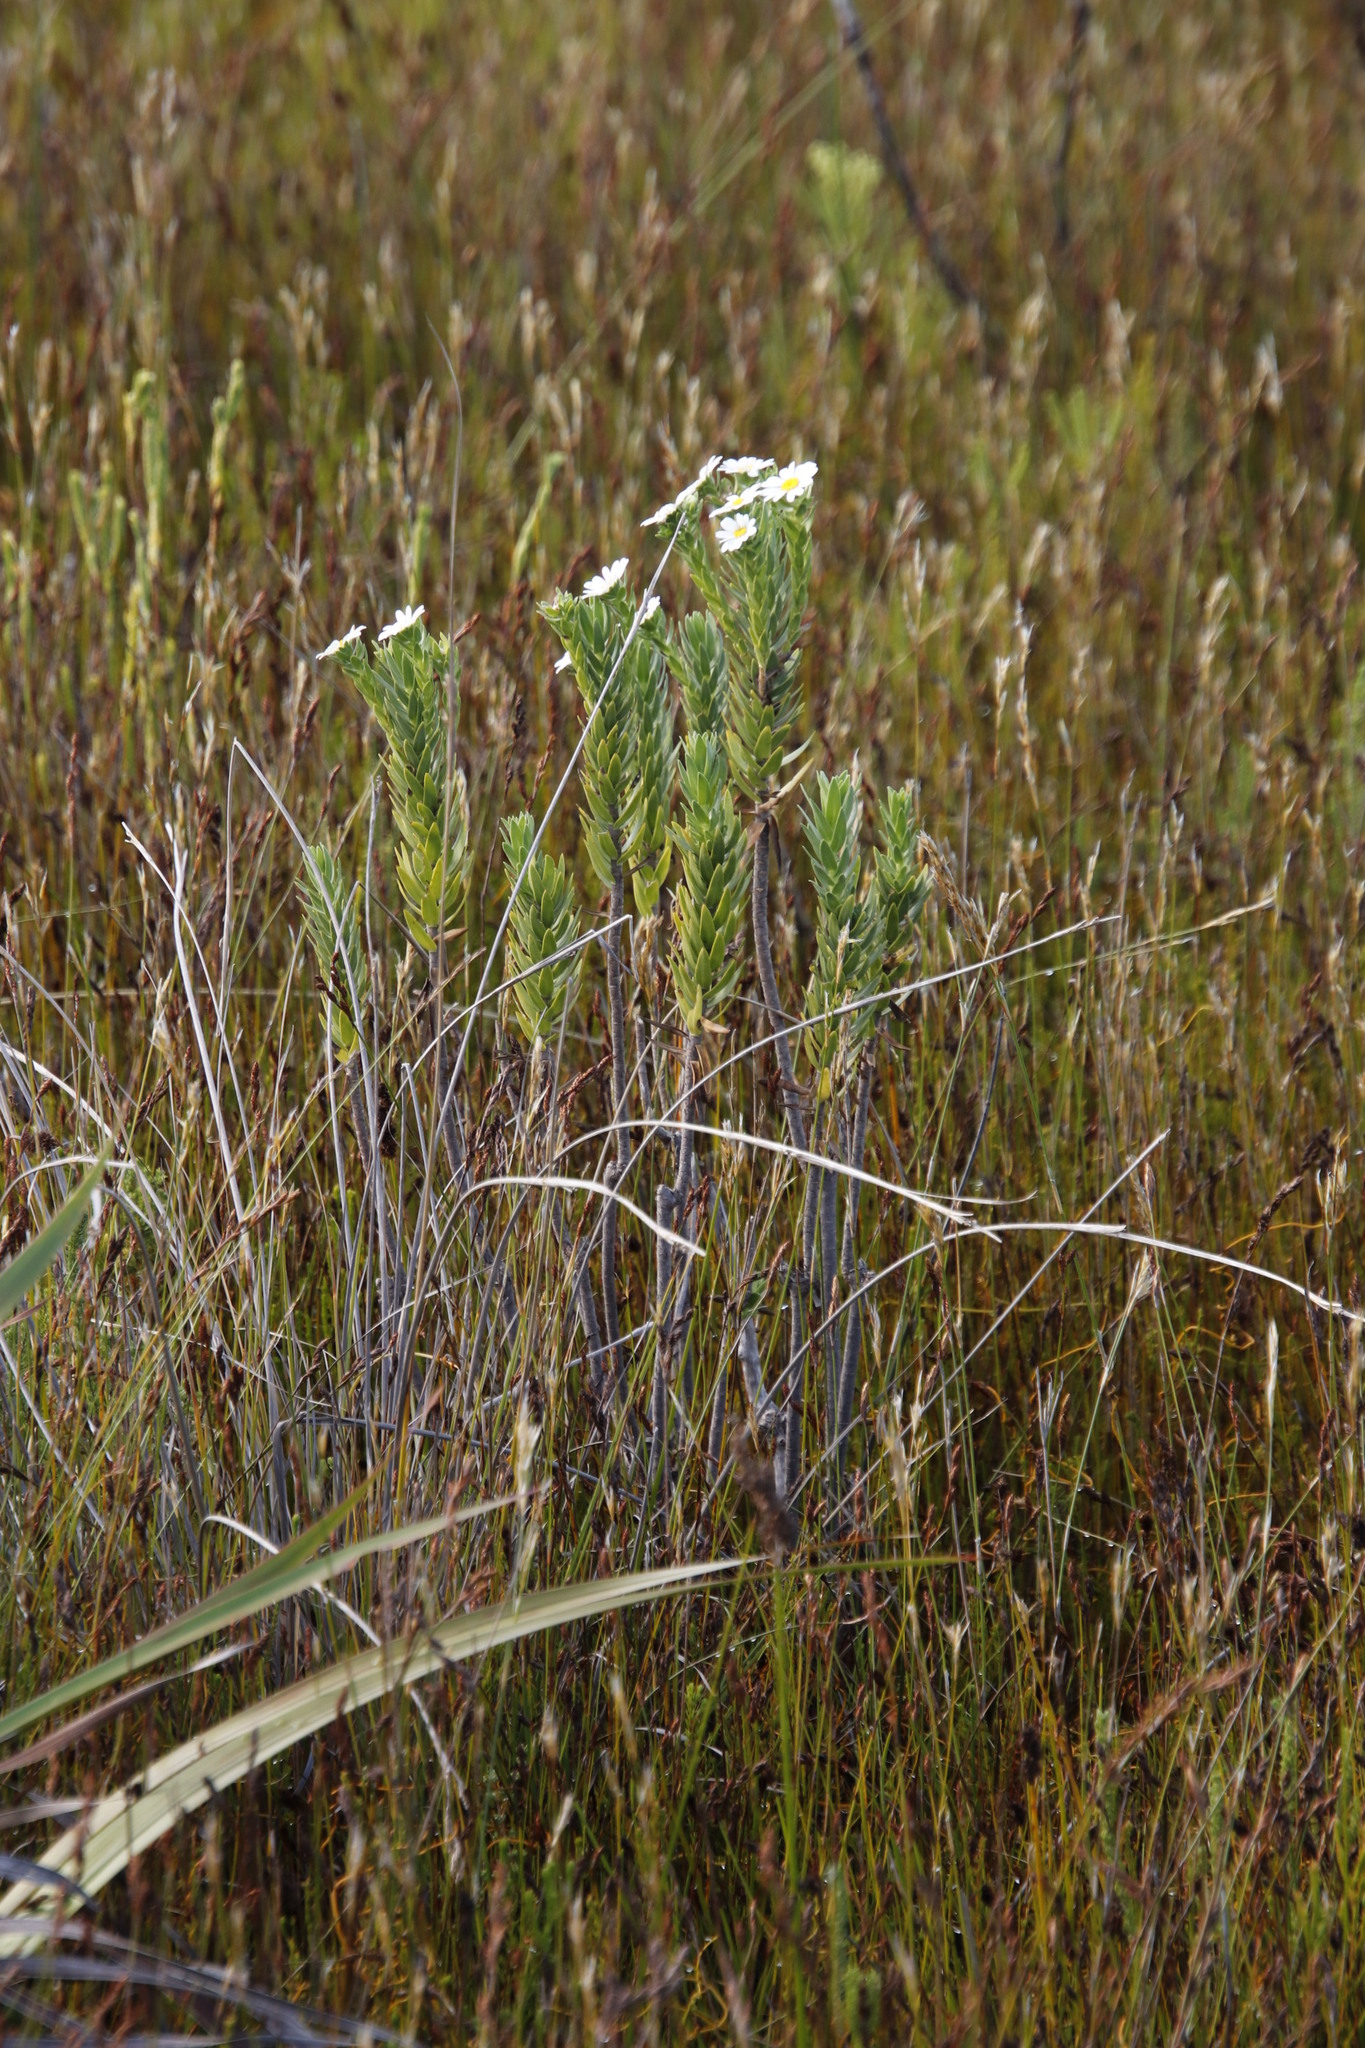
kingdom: Plantae
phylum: Tracheophyta
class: Magnoliopsida
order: Asterales
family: Asteraceae
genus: Osmitopsis
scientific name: Osmitopsis asteriscoides
